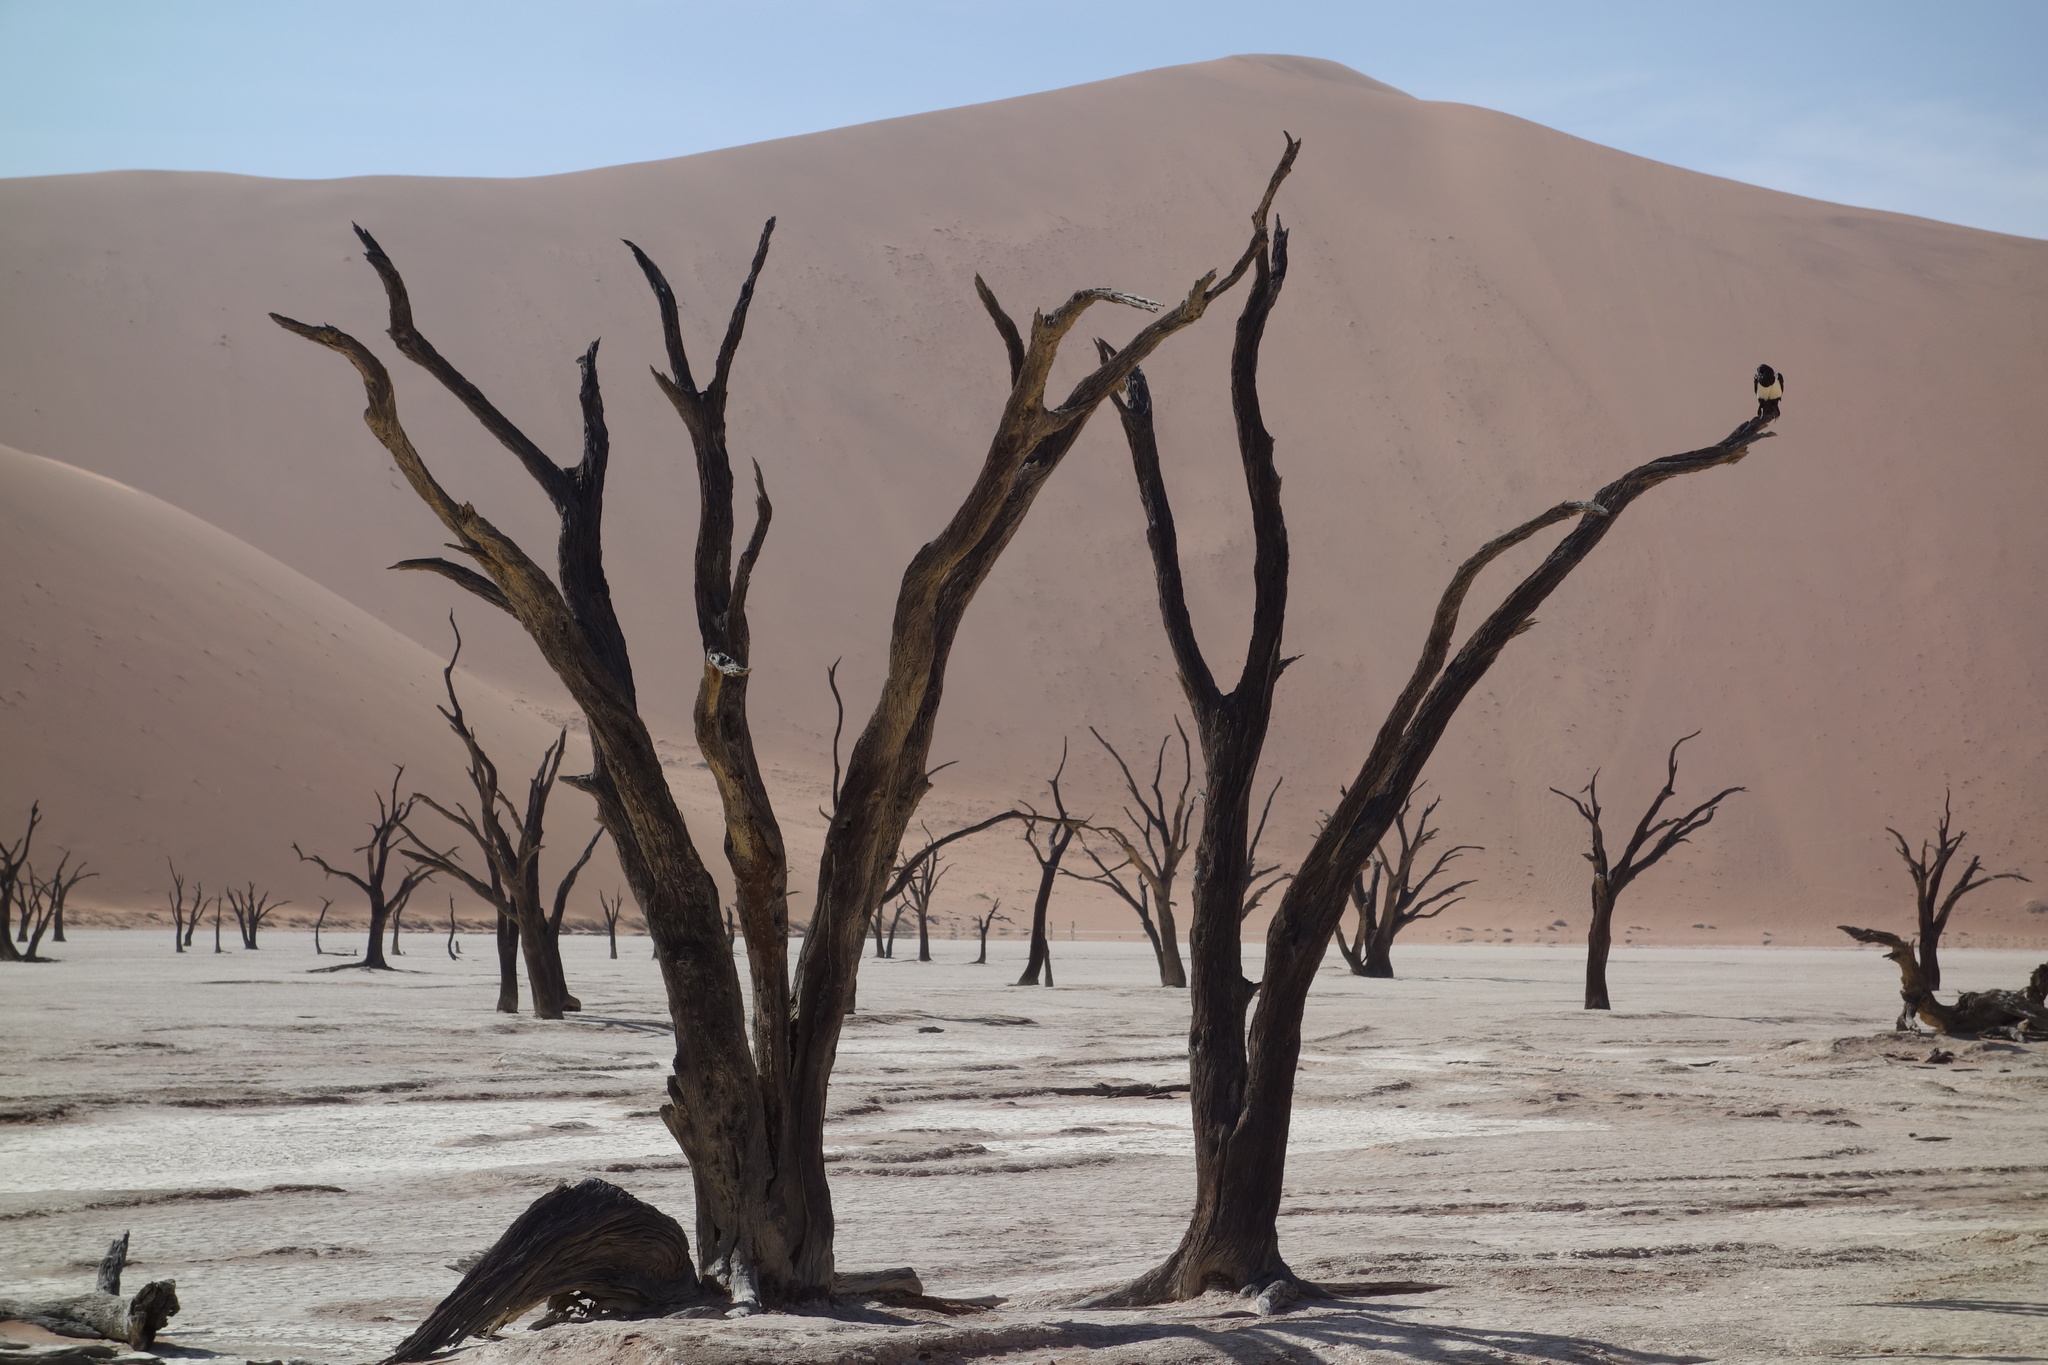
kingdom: Animalia
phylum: Chordata
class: Aves
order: Passeriformes
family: Corvidae
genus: Corvus
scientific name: Corvus albus
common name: Pied crow
